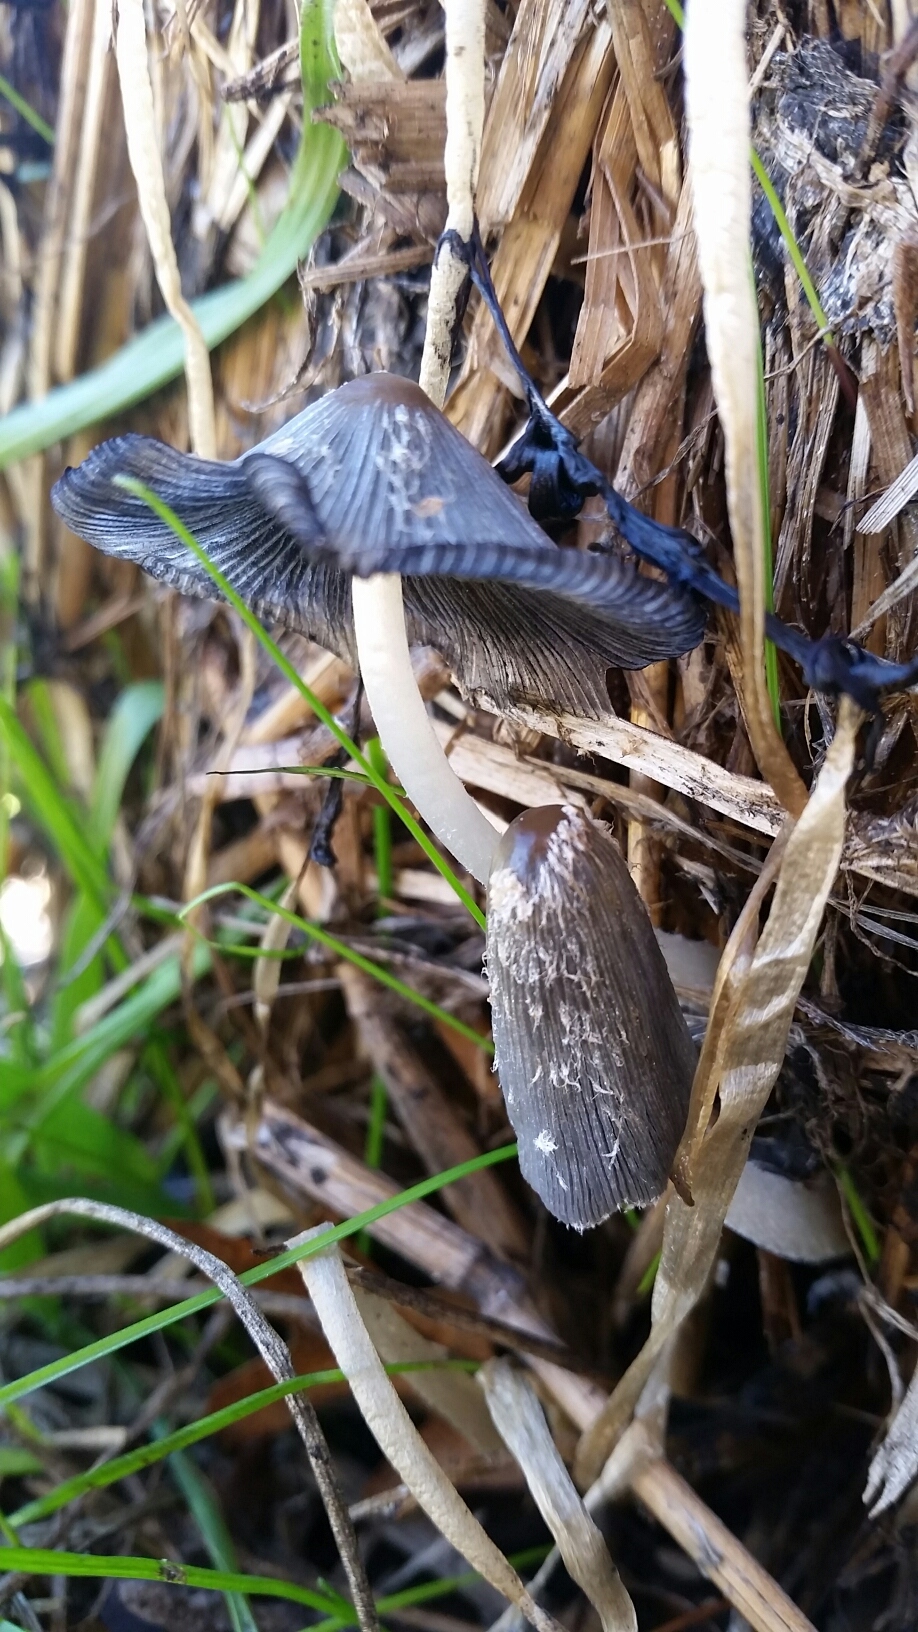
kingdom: Fungi
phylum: Basidiomycota
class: Agaricomycetes
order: Agaricales
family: Psathyrellaceae
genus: Coprinopsis
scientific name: Coprinopsis lagopus
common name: Hare'sfoot inkcap
